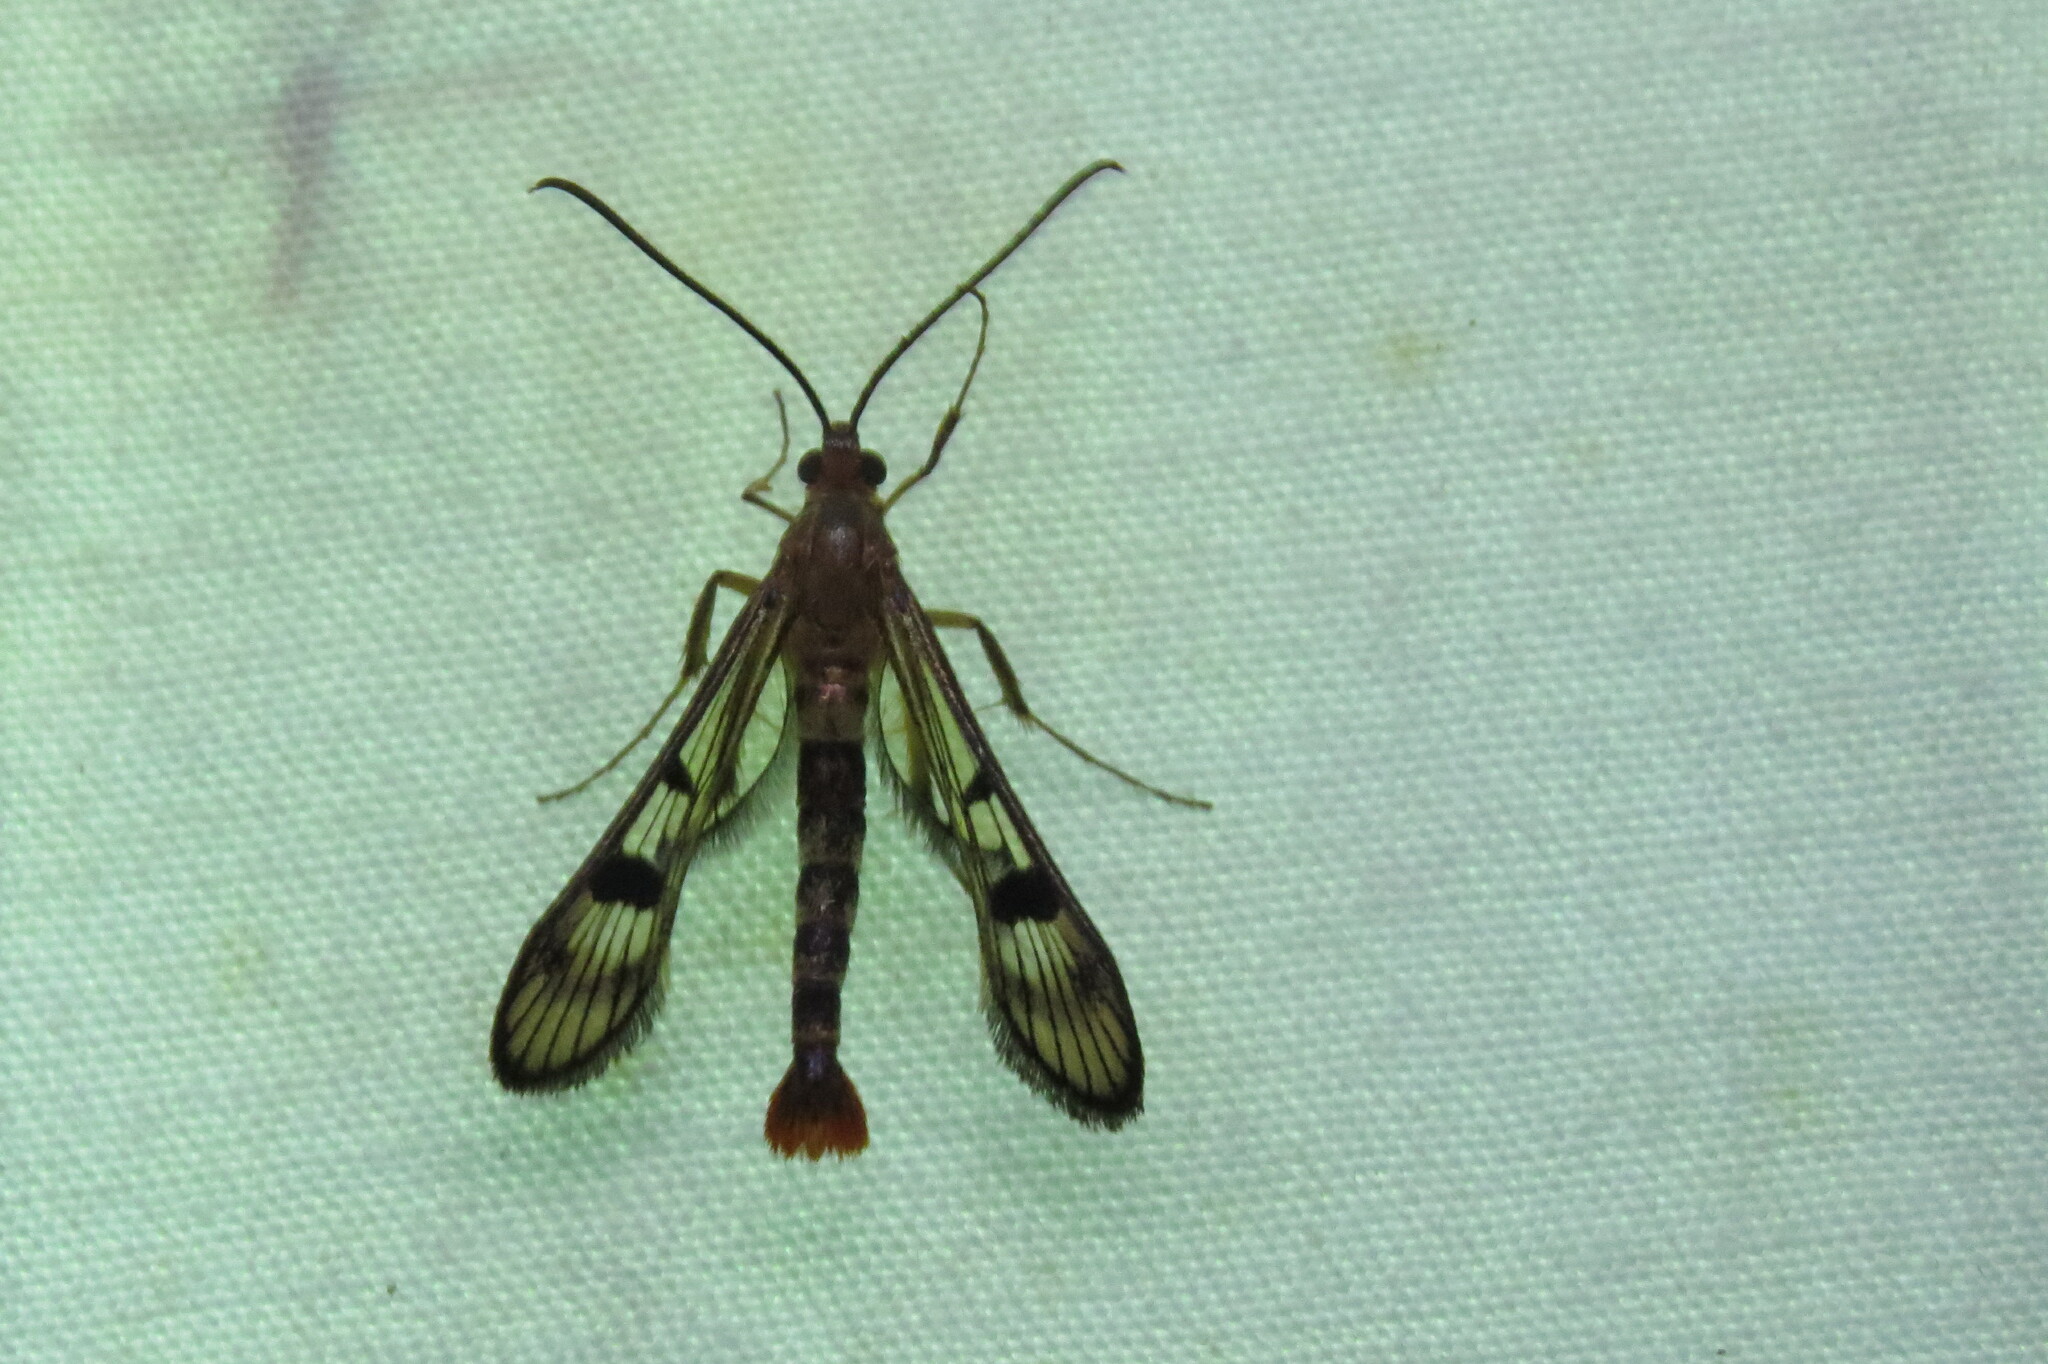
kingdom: Animalia
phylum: Arthropoda
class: Insecta
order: Lepidoptera
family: Sesiidae
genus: Synanthedon
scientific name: Synanthedon acerni
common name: Maple callus borer moth
